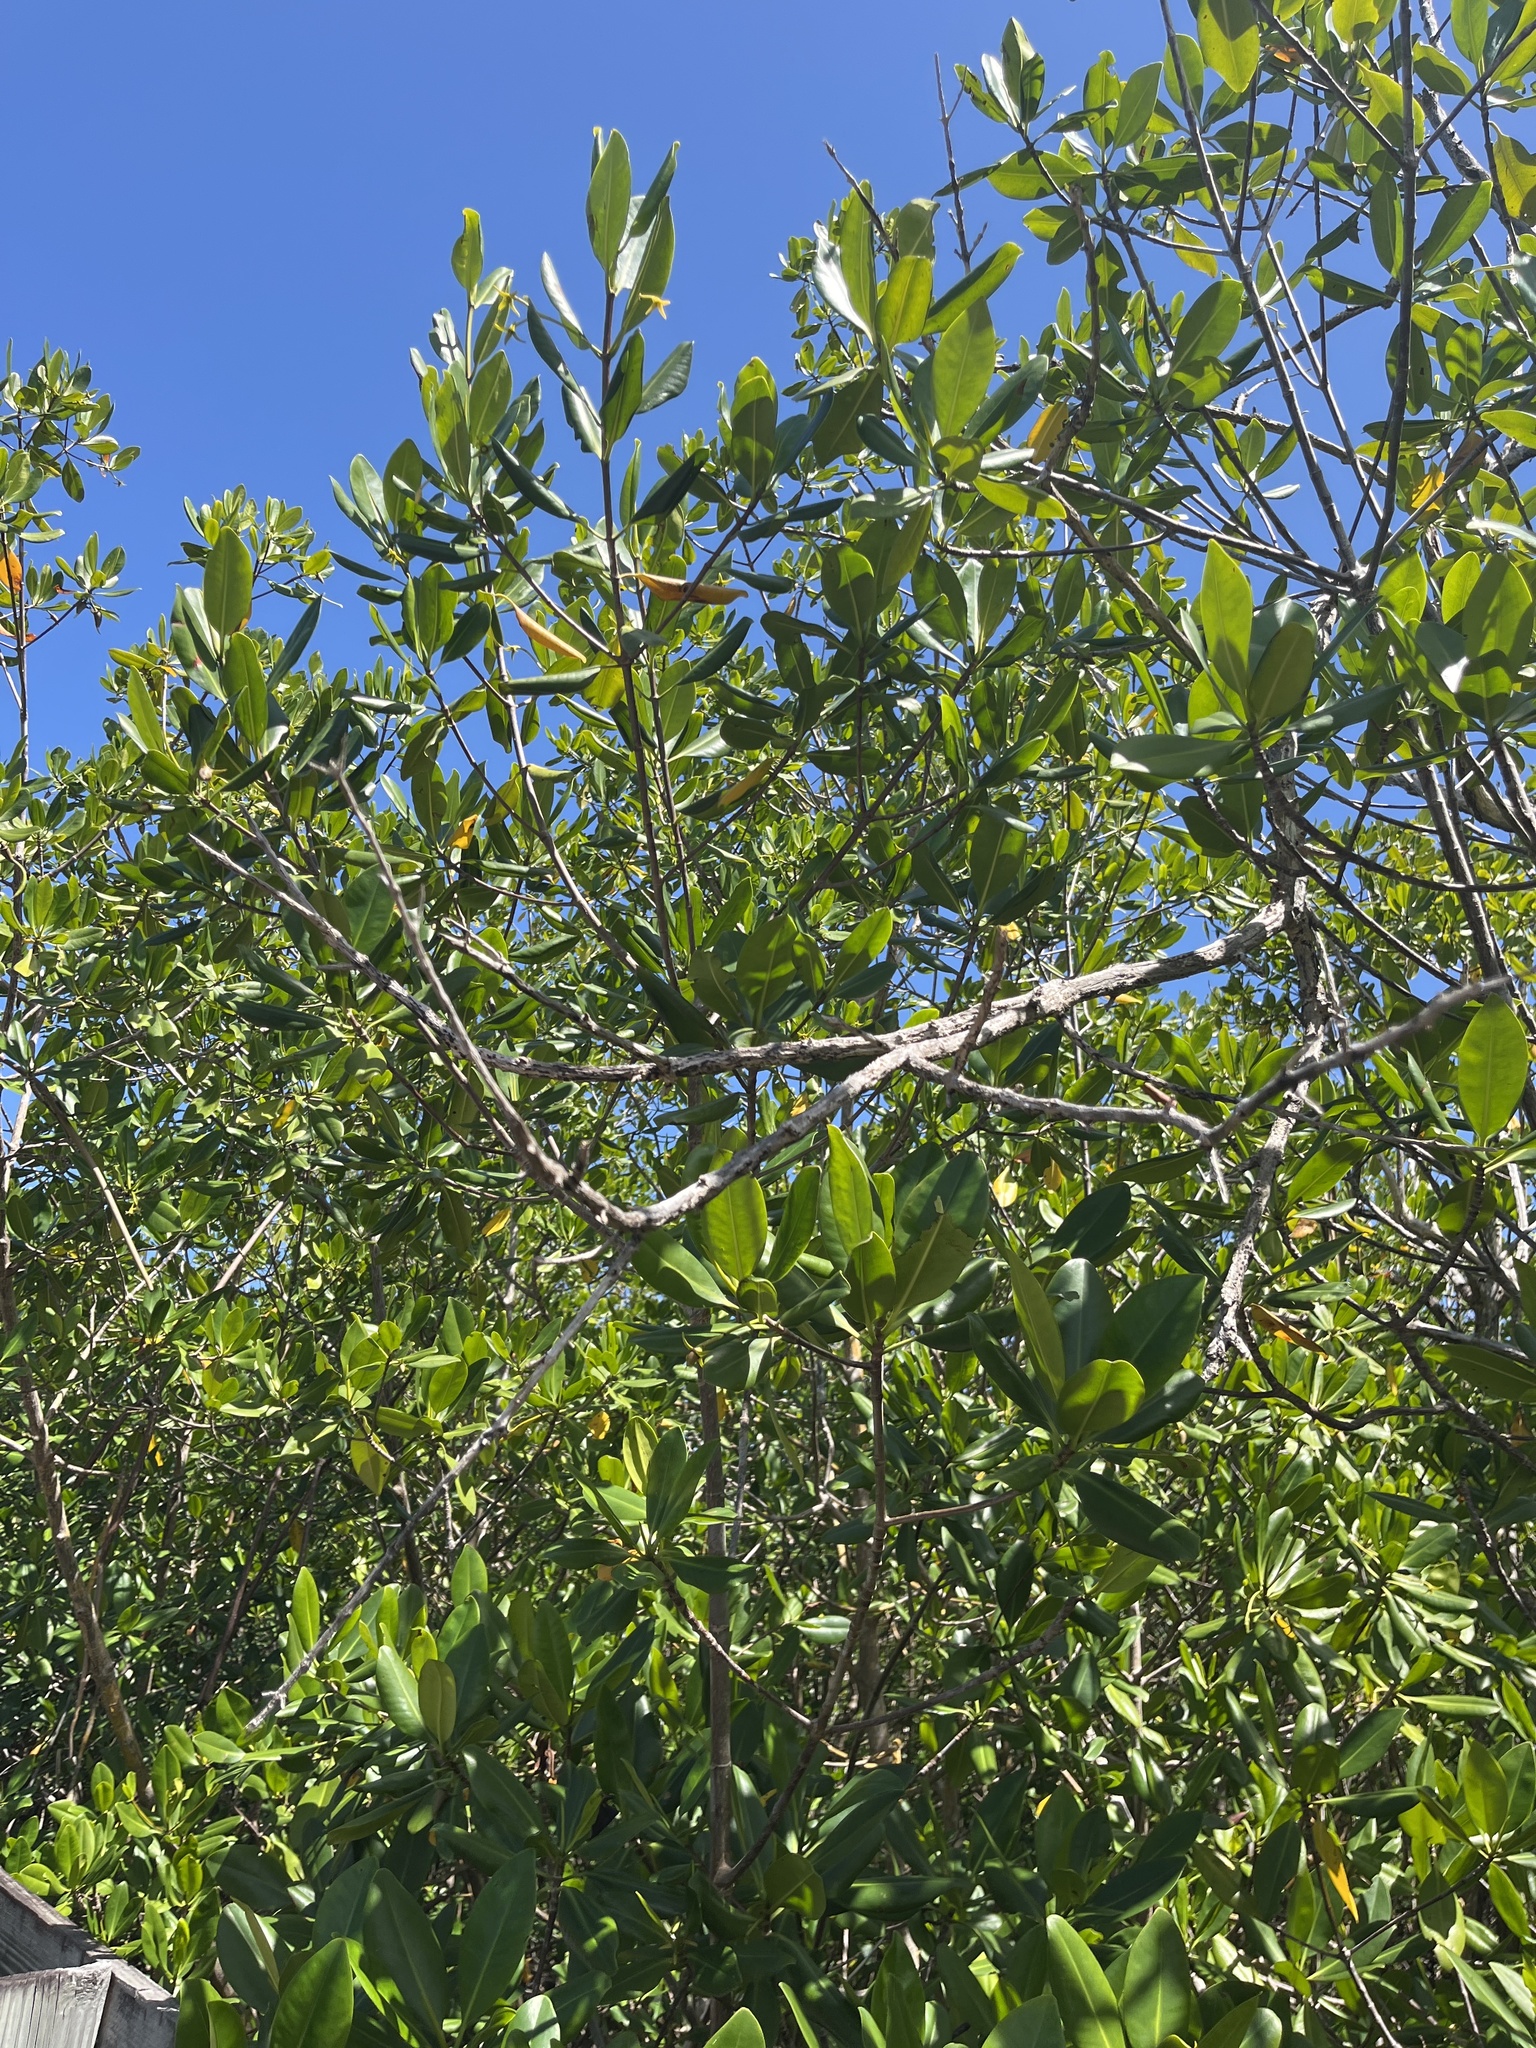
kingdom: Plantae
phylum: Tracheophyta
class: Magnoliopsida
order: Malpighiales
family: Rhizophoraceae
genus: Rhizophora
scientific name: Rhizophora mangle
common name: Red mangrove
